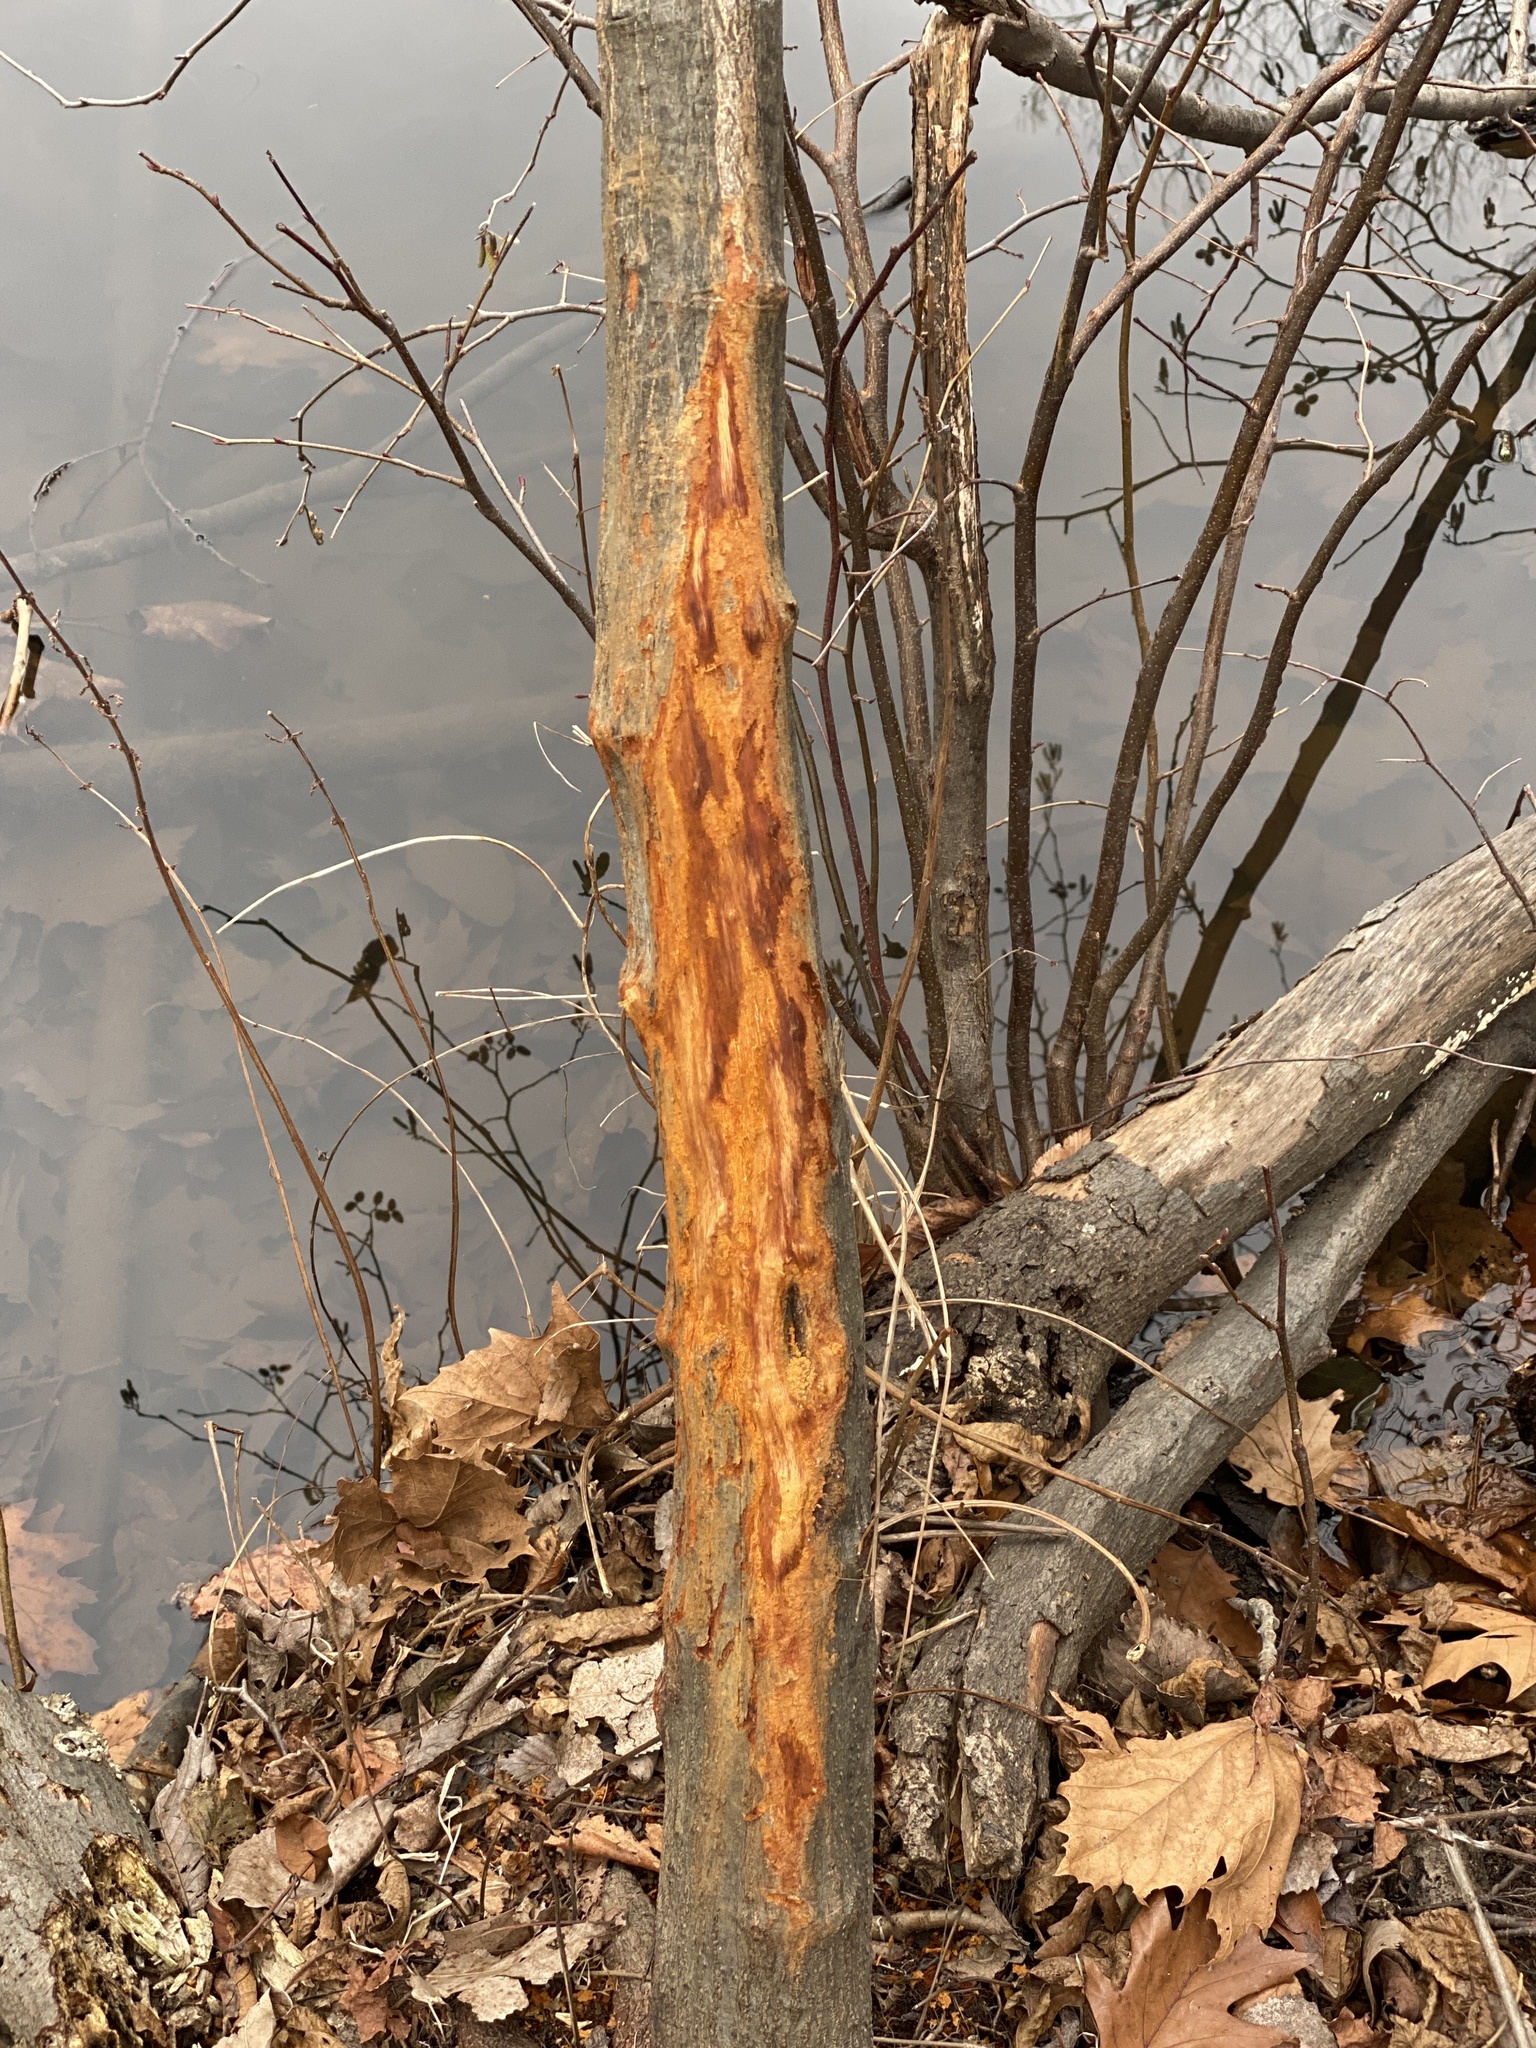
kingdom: Animalia
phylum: Chordata
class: Mammalia
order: Artiodactyla
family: Cervidae
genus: Odocoileus
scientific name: Odocoileus virginianus
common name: White-tailed deer
